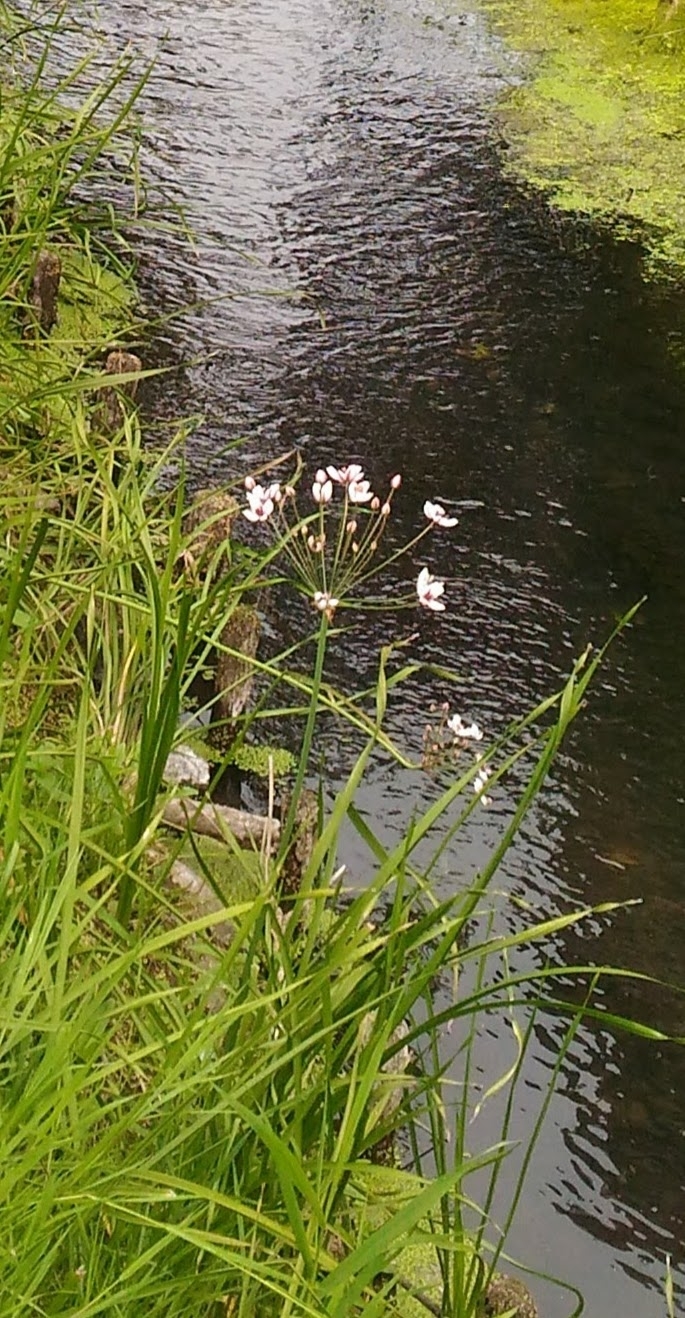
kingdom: Plantae
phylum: Tracheophyta
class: Liliopsida
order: Alismatales
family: Butomaceae
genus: Butomus
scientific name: Butomus umbellatus
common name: Flowering-rush
